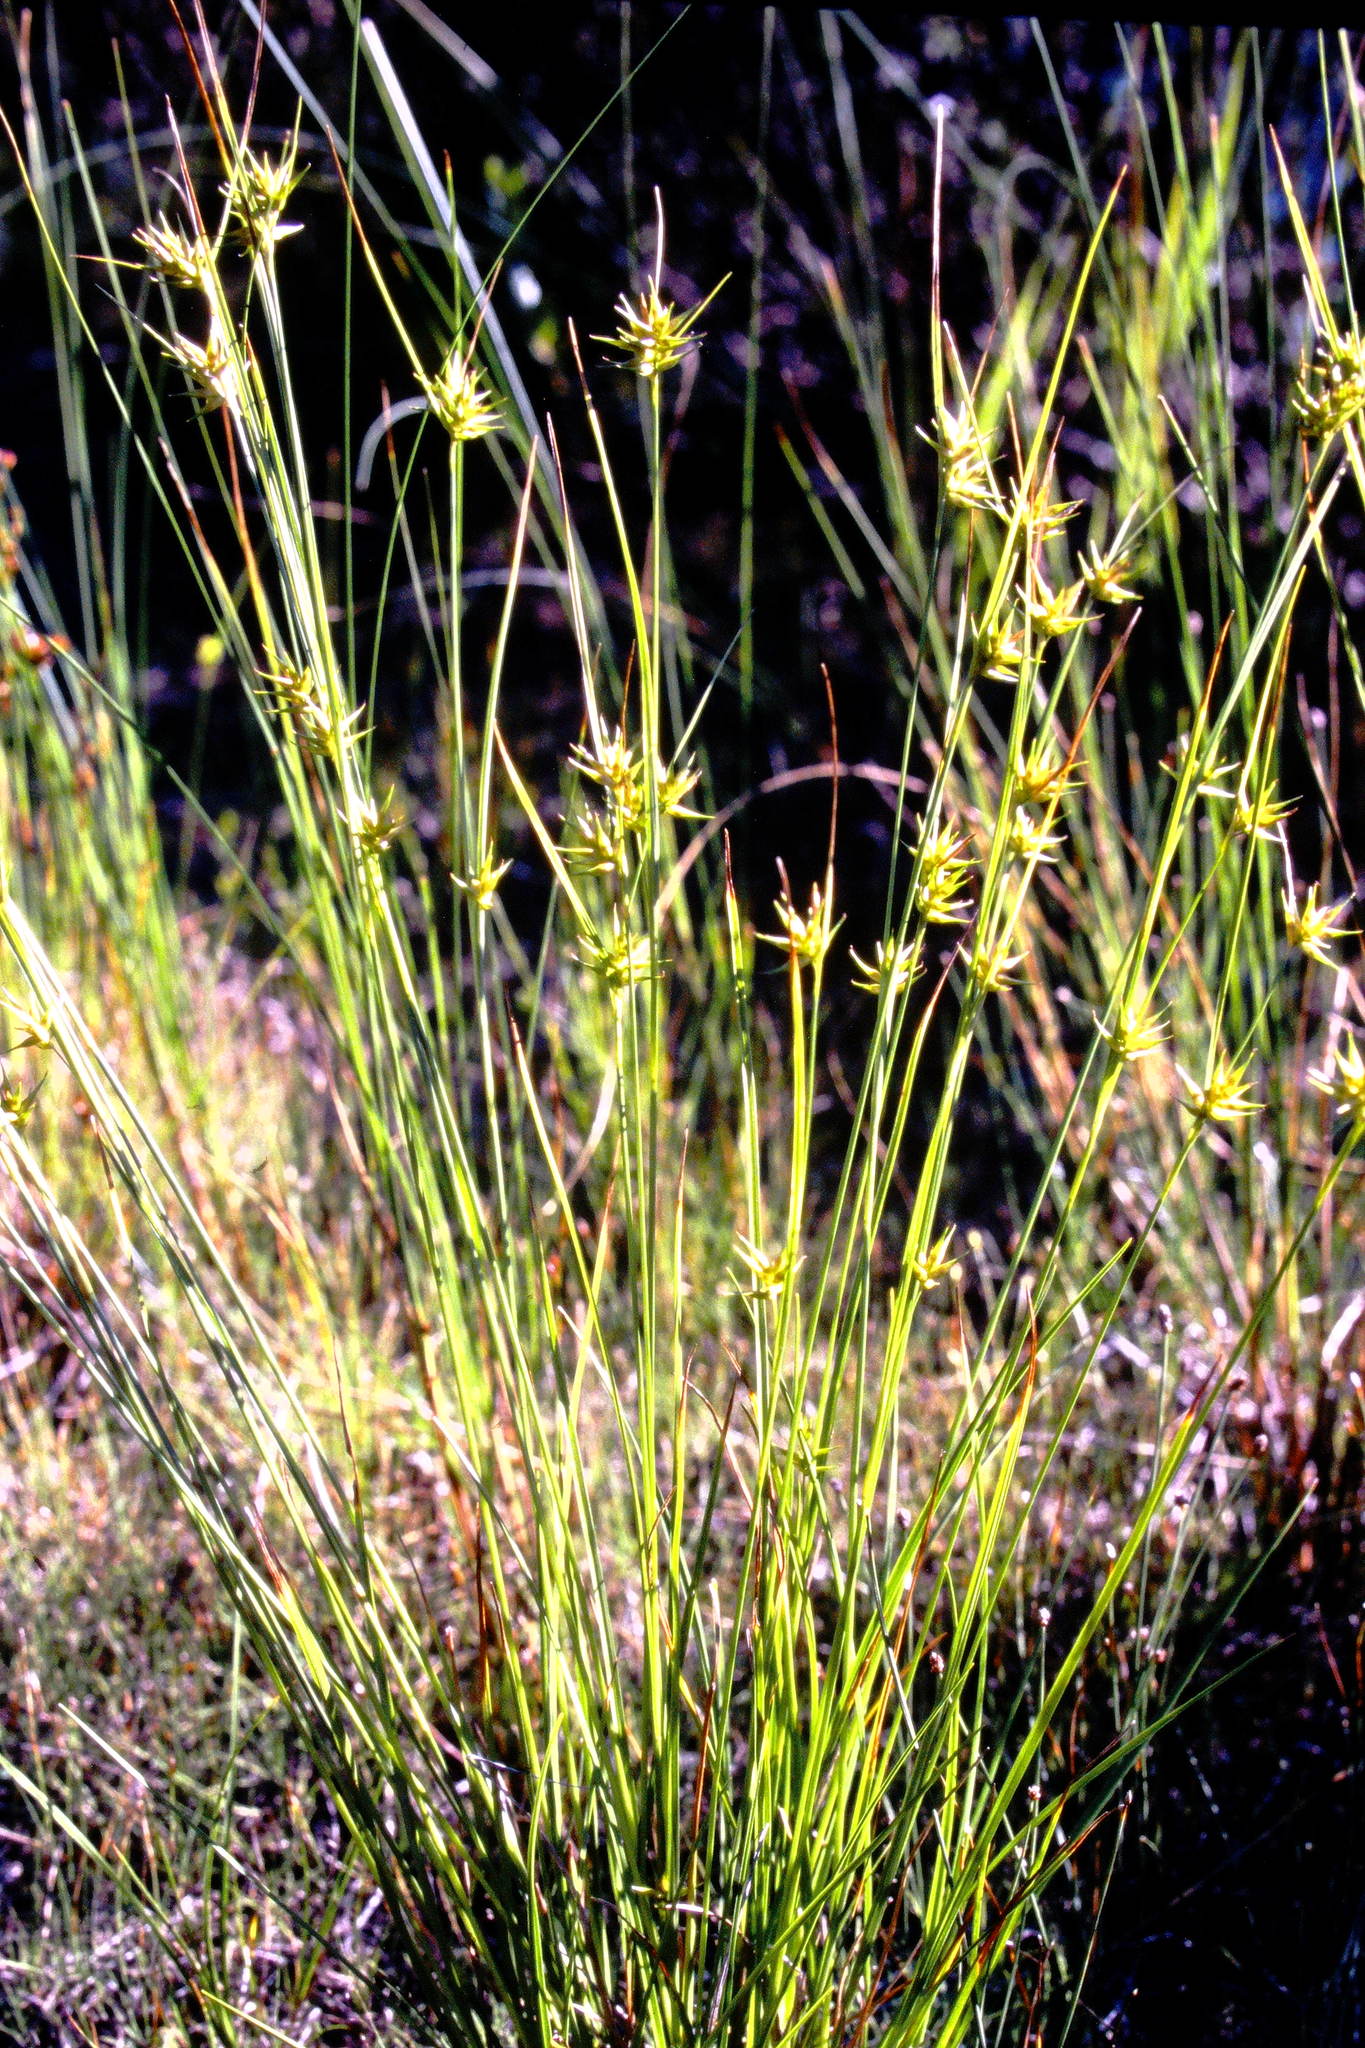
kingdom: Plantae
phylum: Tracheophyta
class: Liliopsida
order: Poales
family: Cyperaceae
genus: Carex
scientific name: Carex michauxiana
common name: Michaux's sedge
